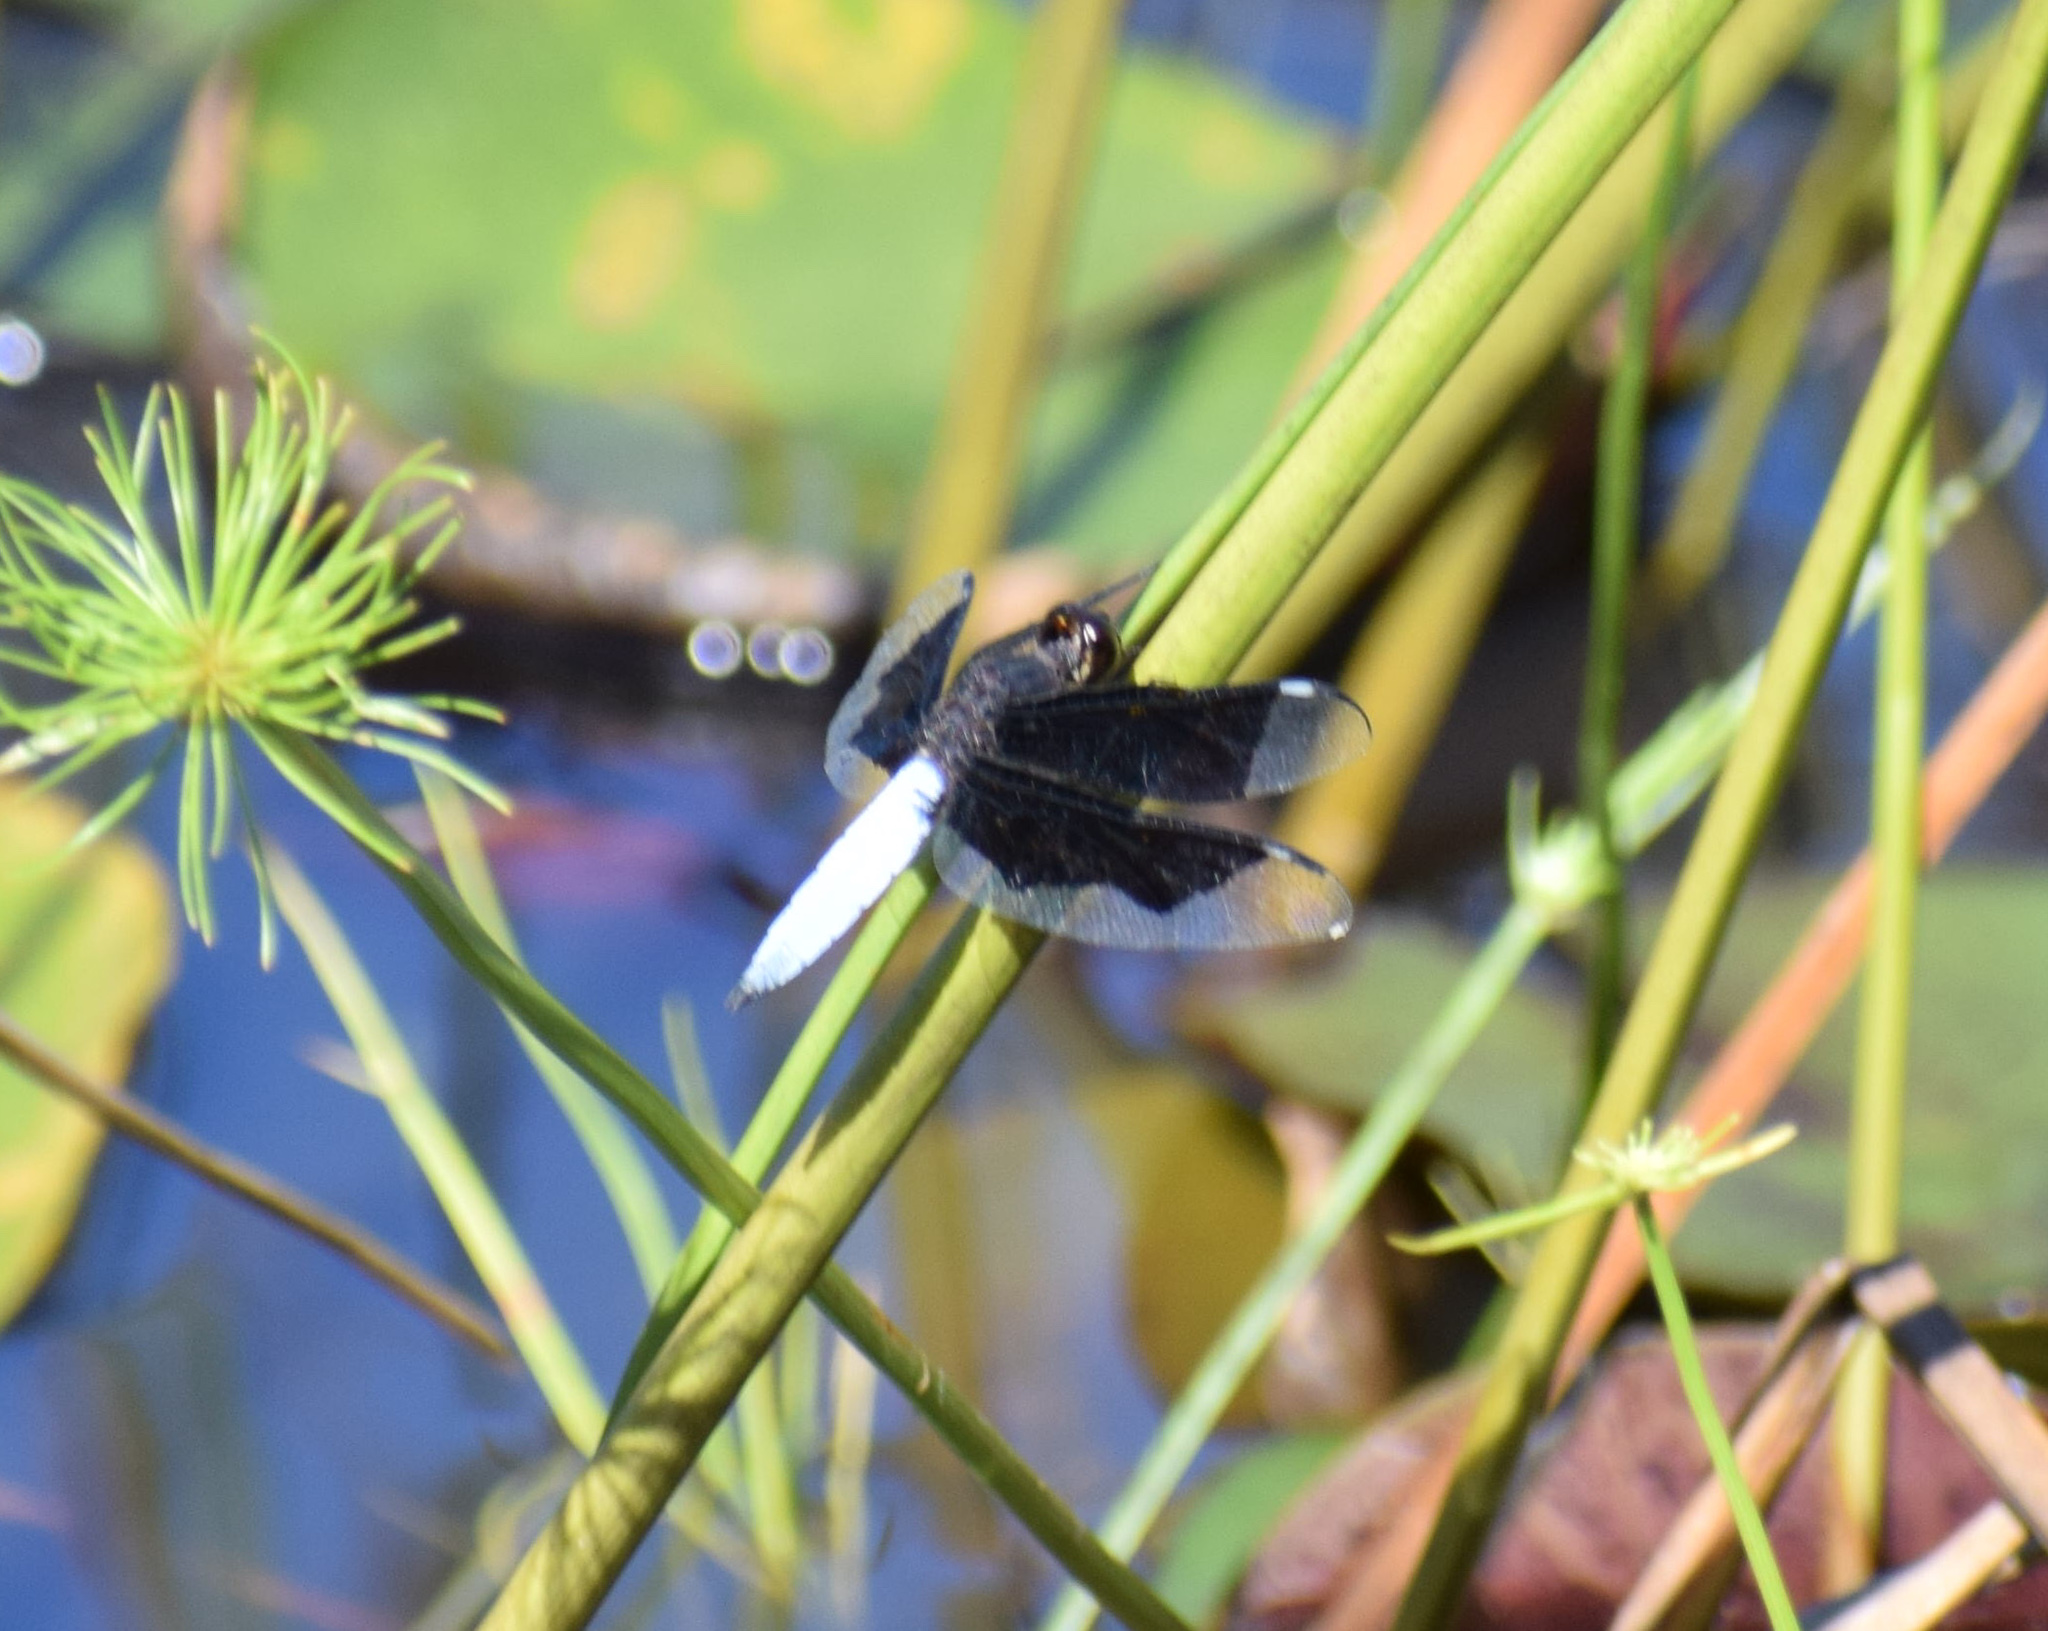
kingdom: Animalia
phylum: Arthropoda
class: Insecta
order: Odonata
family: Libellulidae
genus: Palpopleura
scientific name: Palpopleura lucia
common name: Lucia widow
